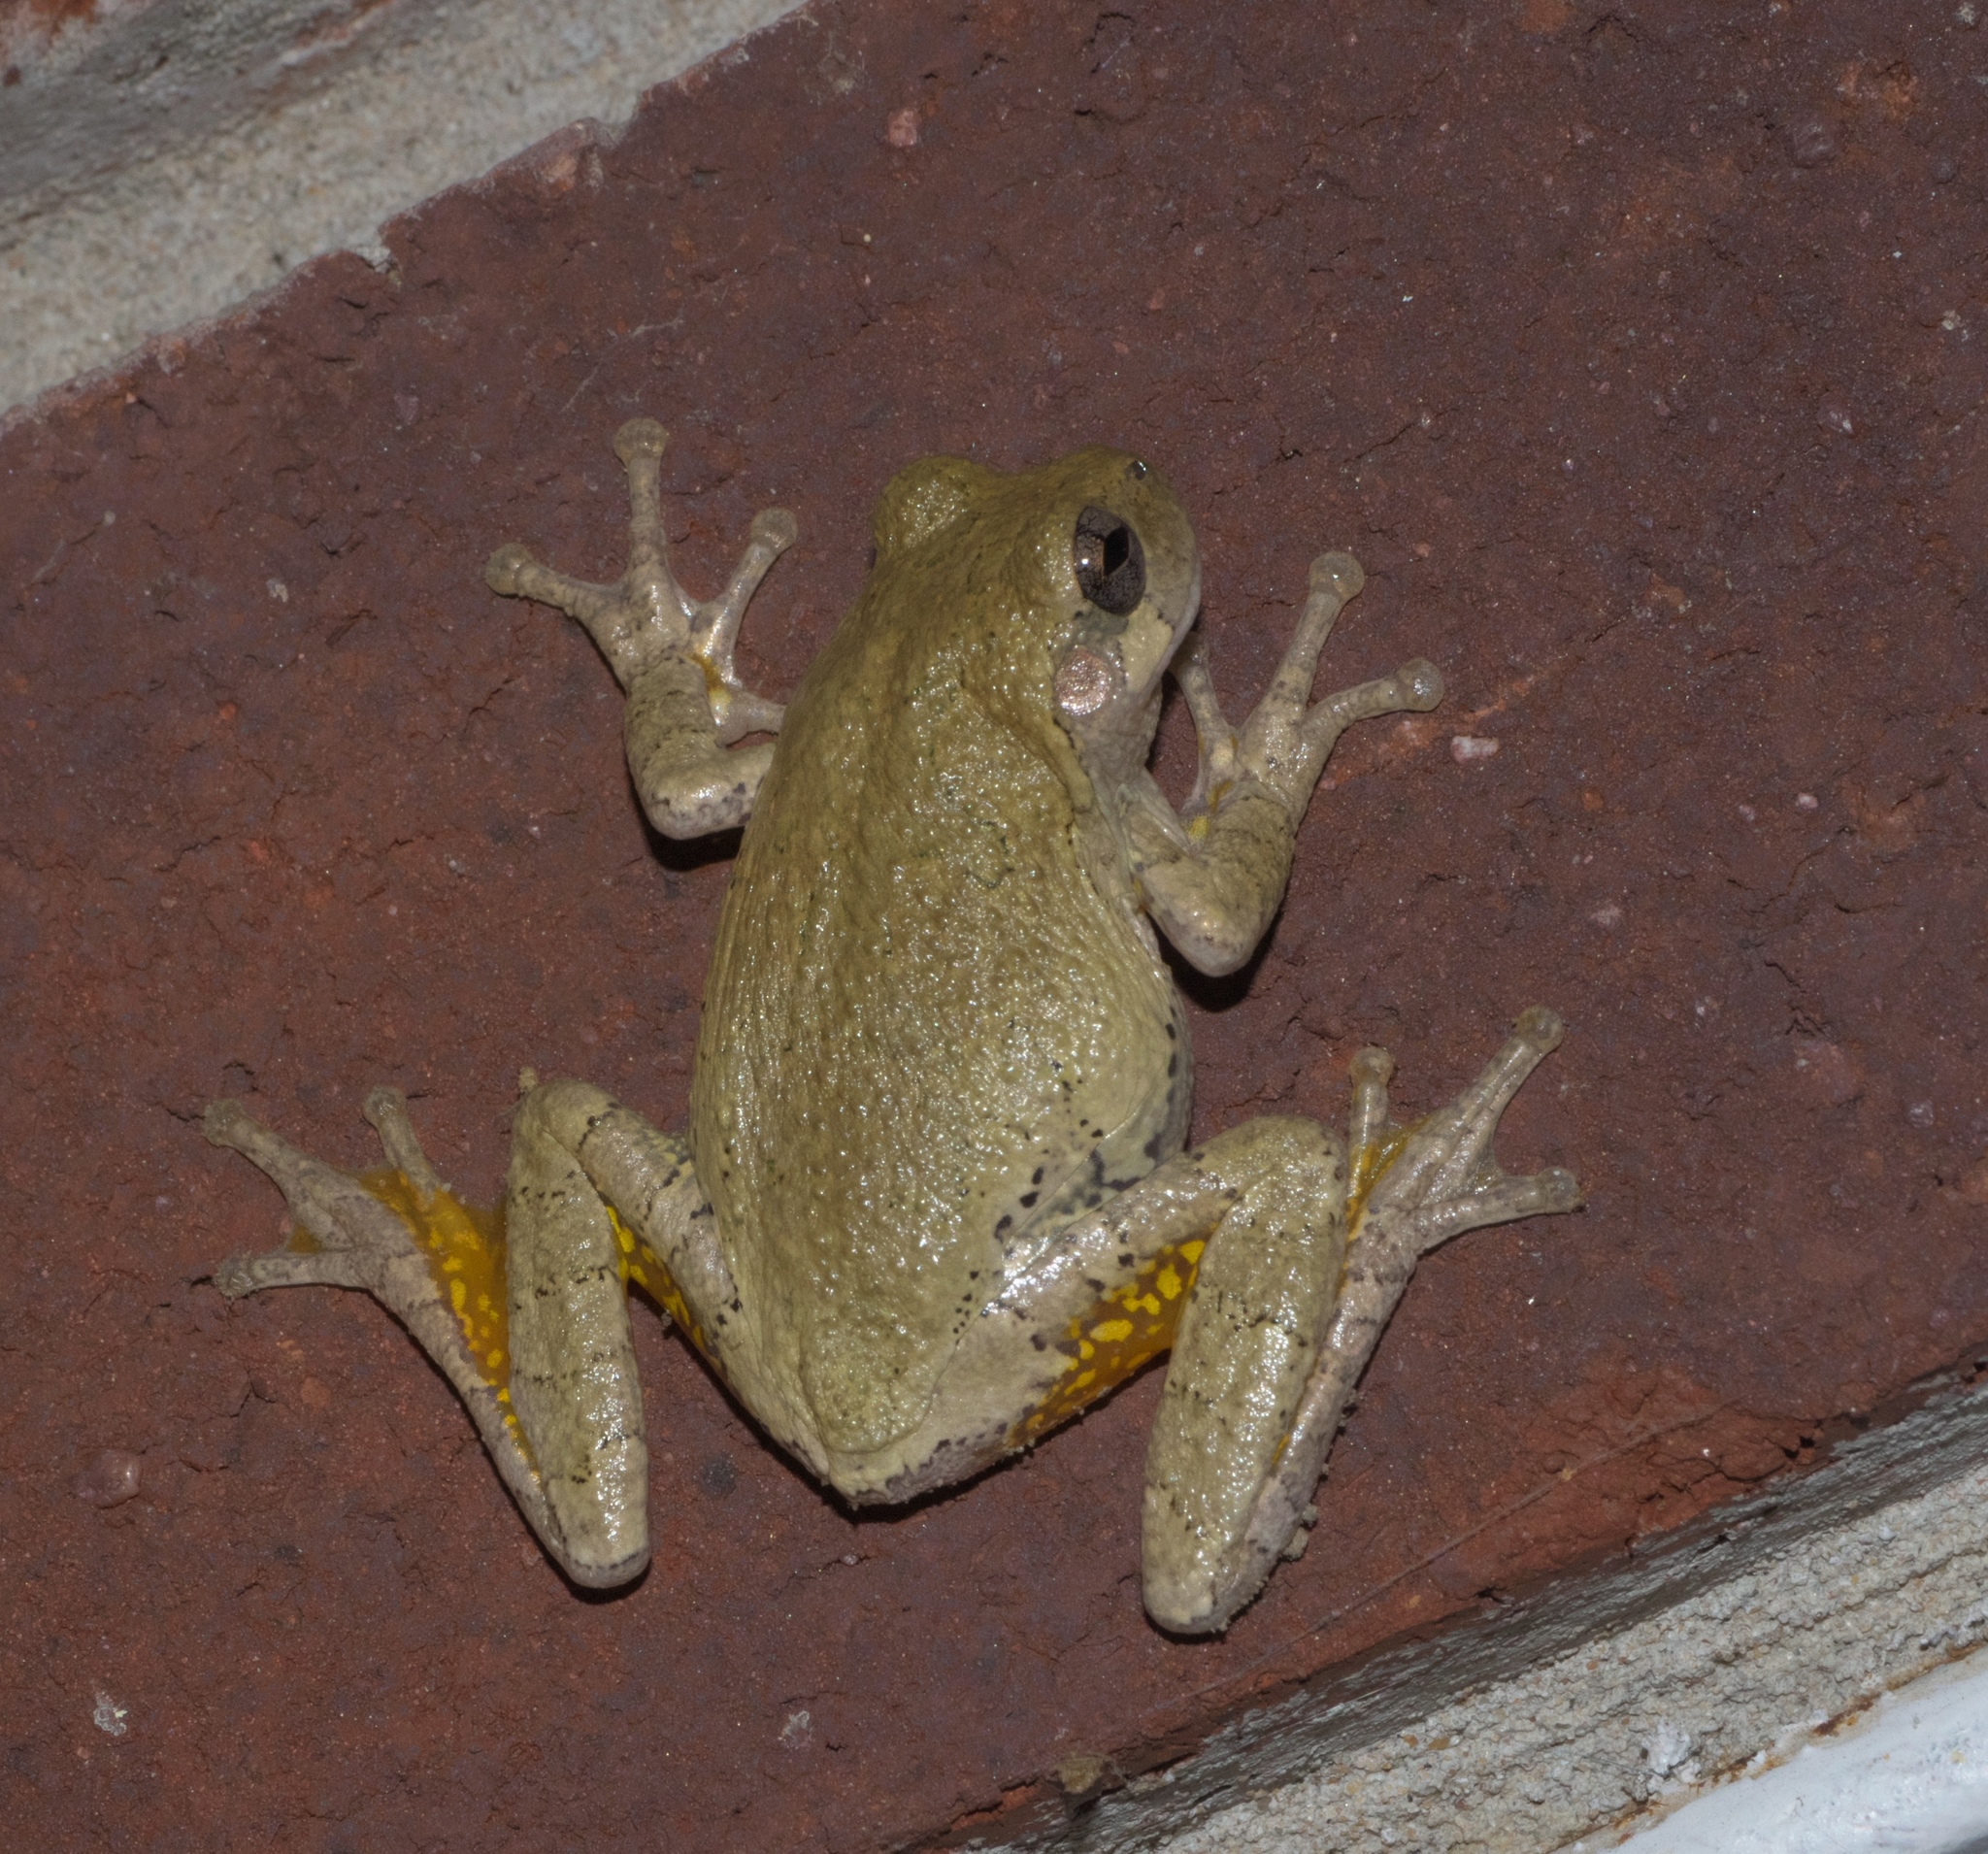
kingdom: Animalia
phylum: Chordata
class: Amphibia
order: Anura
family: Hylidae
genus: Hyla
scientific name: Hyla
